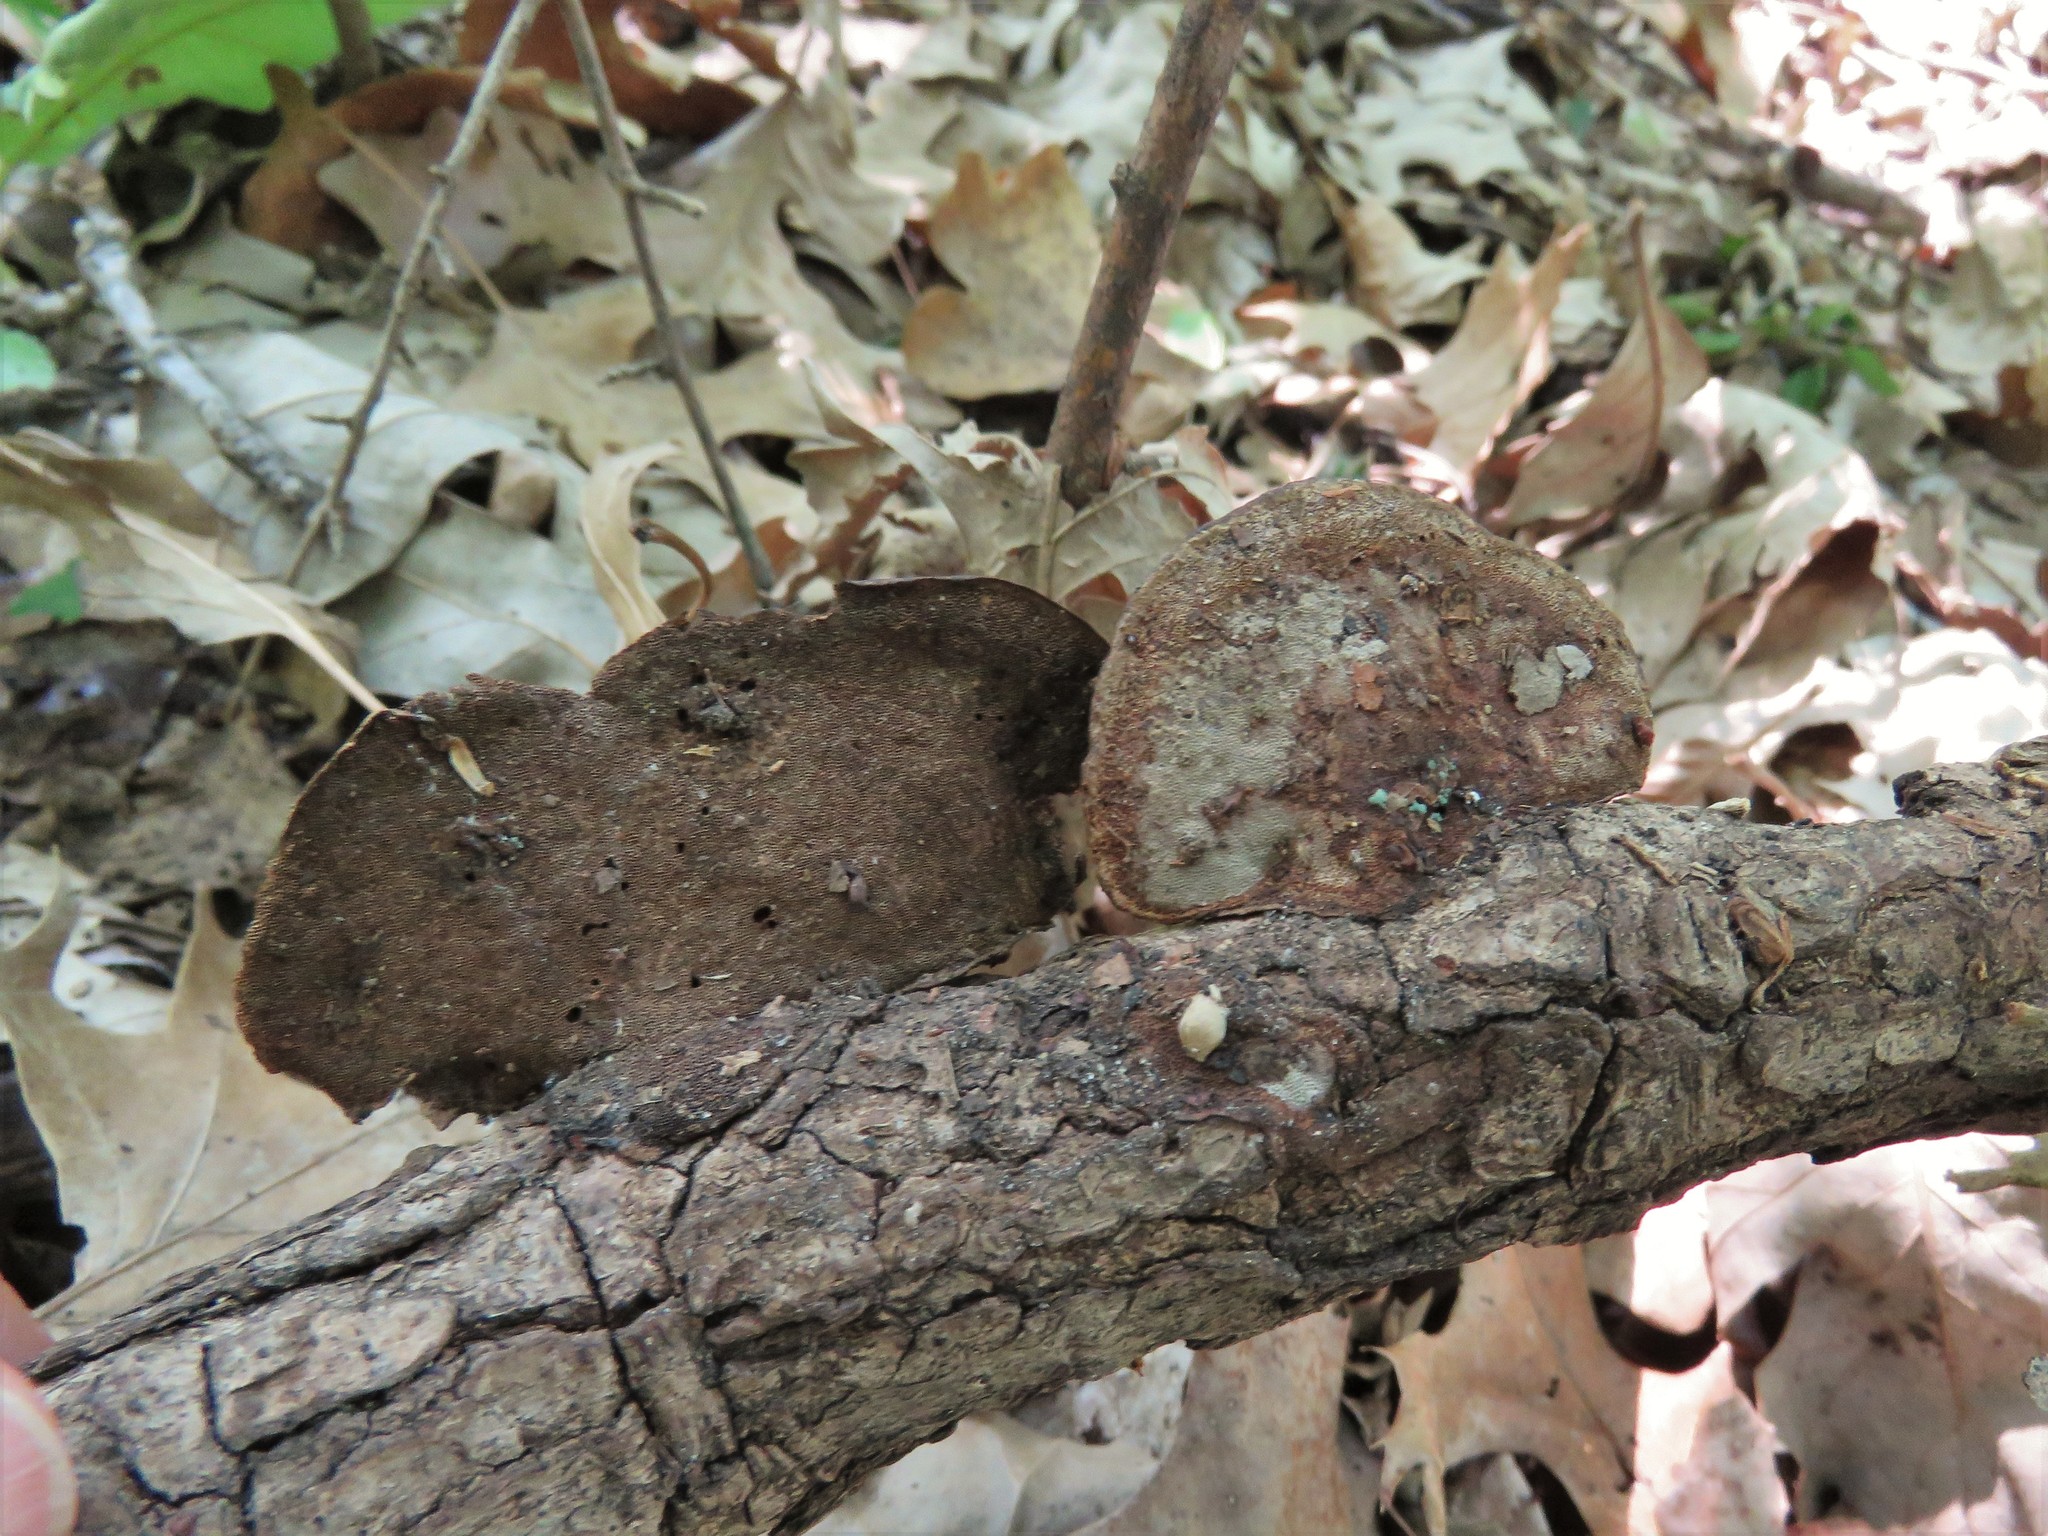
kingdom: Fungi
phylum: Basidiomycota
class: Agaricomycetes
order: Polyporales
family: Cerrenaceae
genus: Cerrena
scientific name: Cerrena hydnoides
